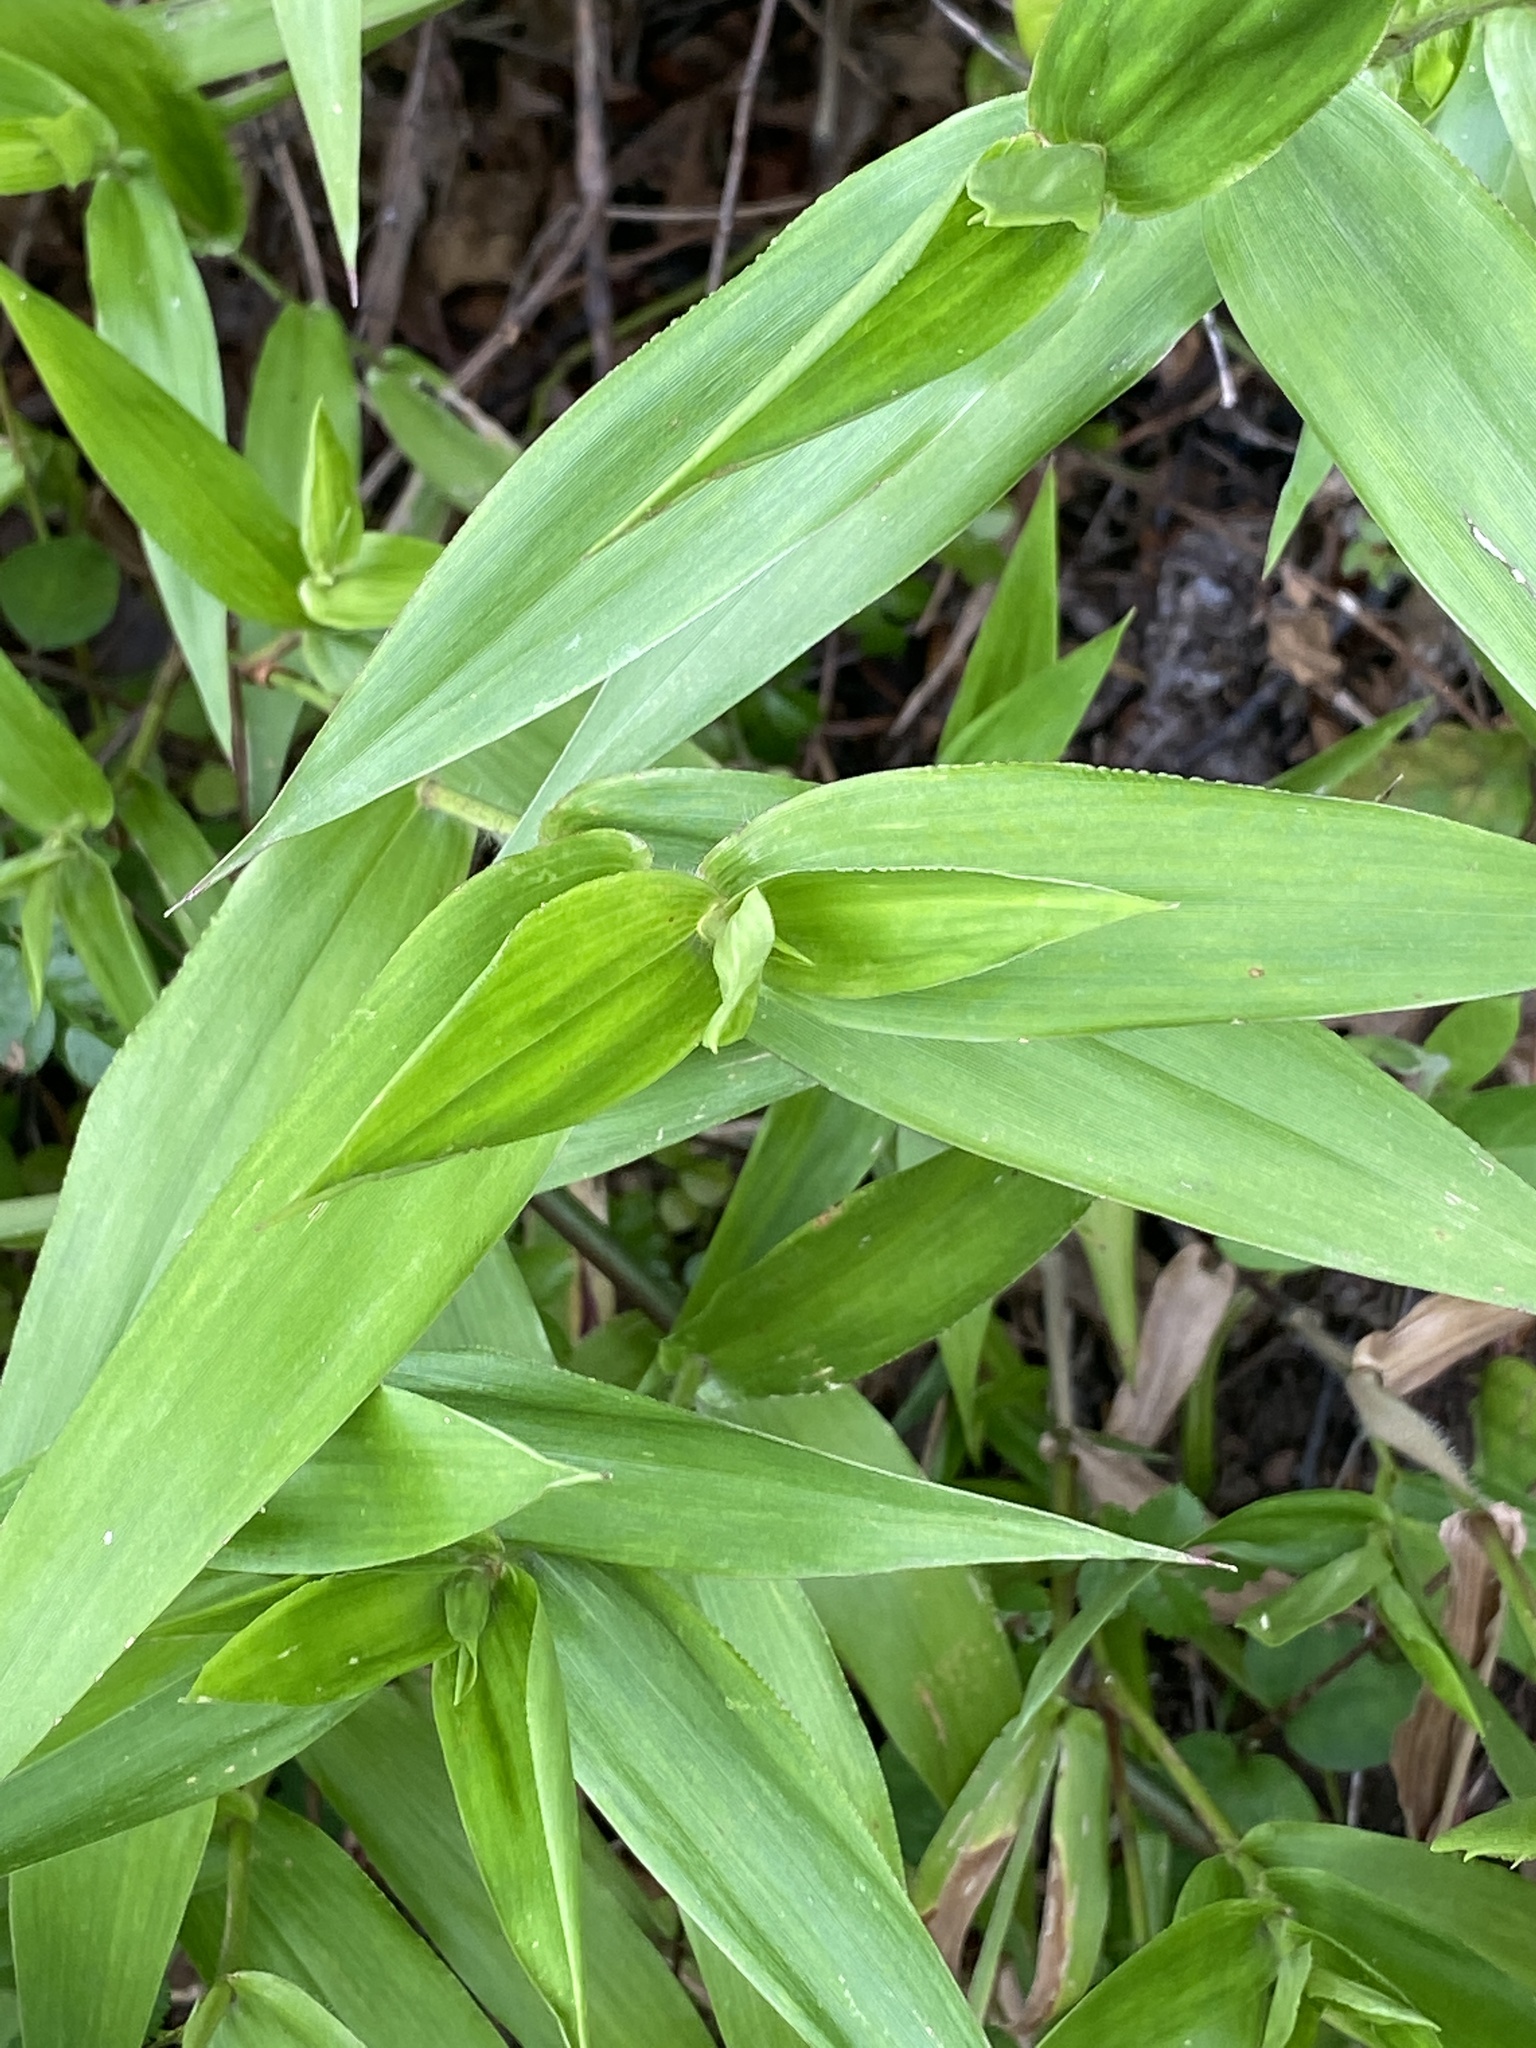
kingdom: Plantae
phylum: Tracheophyta
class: Liliopsida
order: Poales
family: Poaceae
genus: Dichanthelium
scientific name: Dichanthelium clandestinum
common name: Deer-tongue grass
